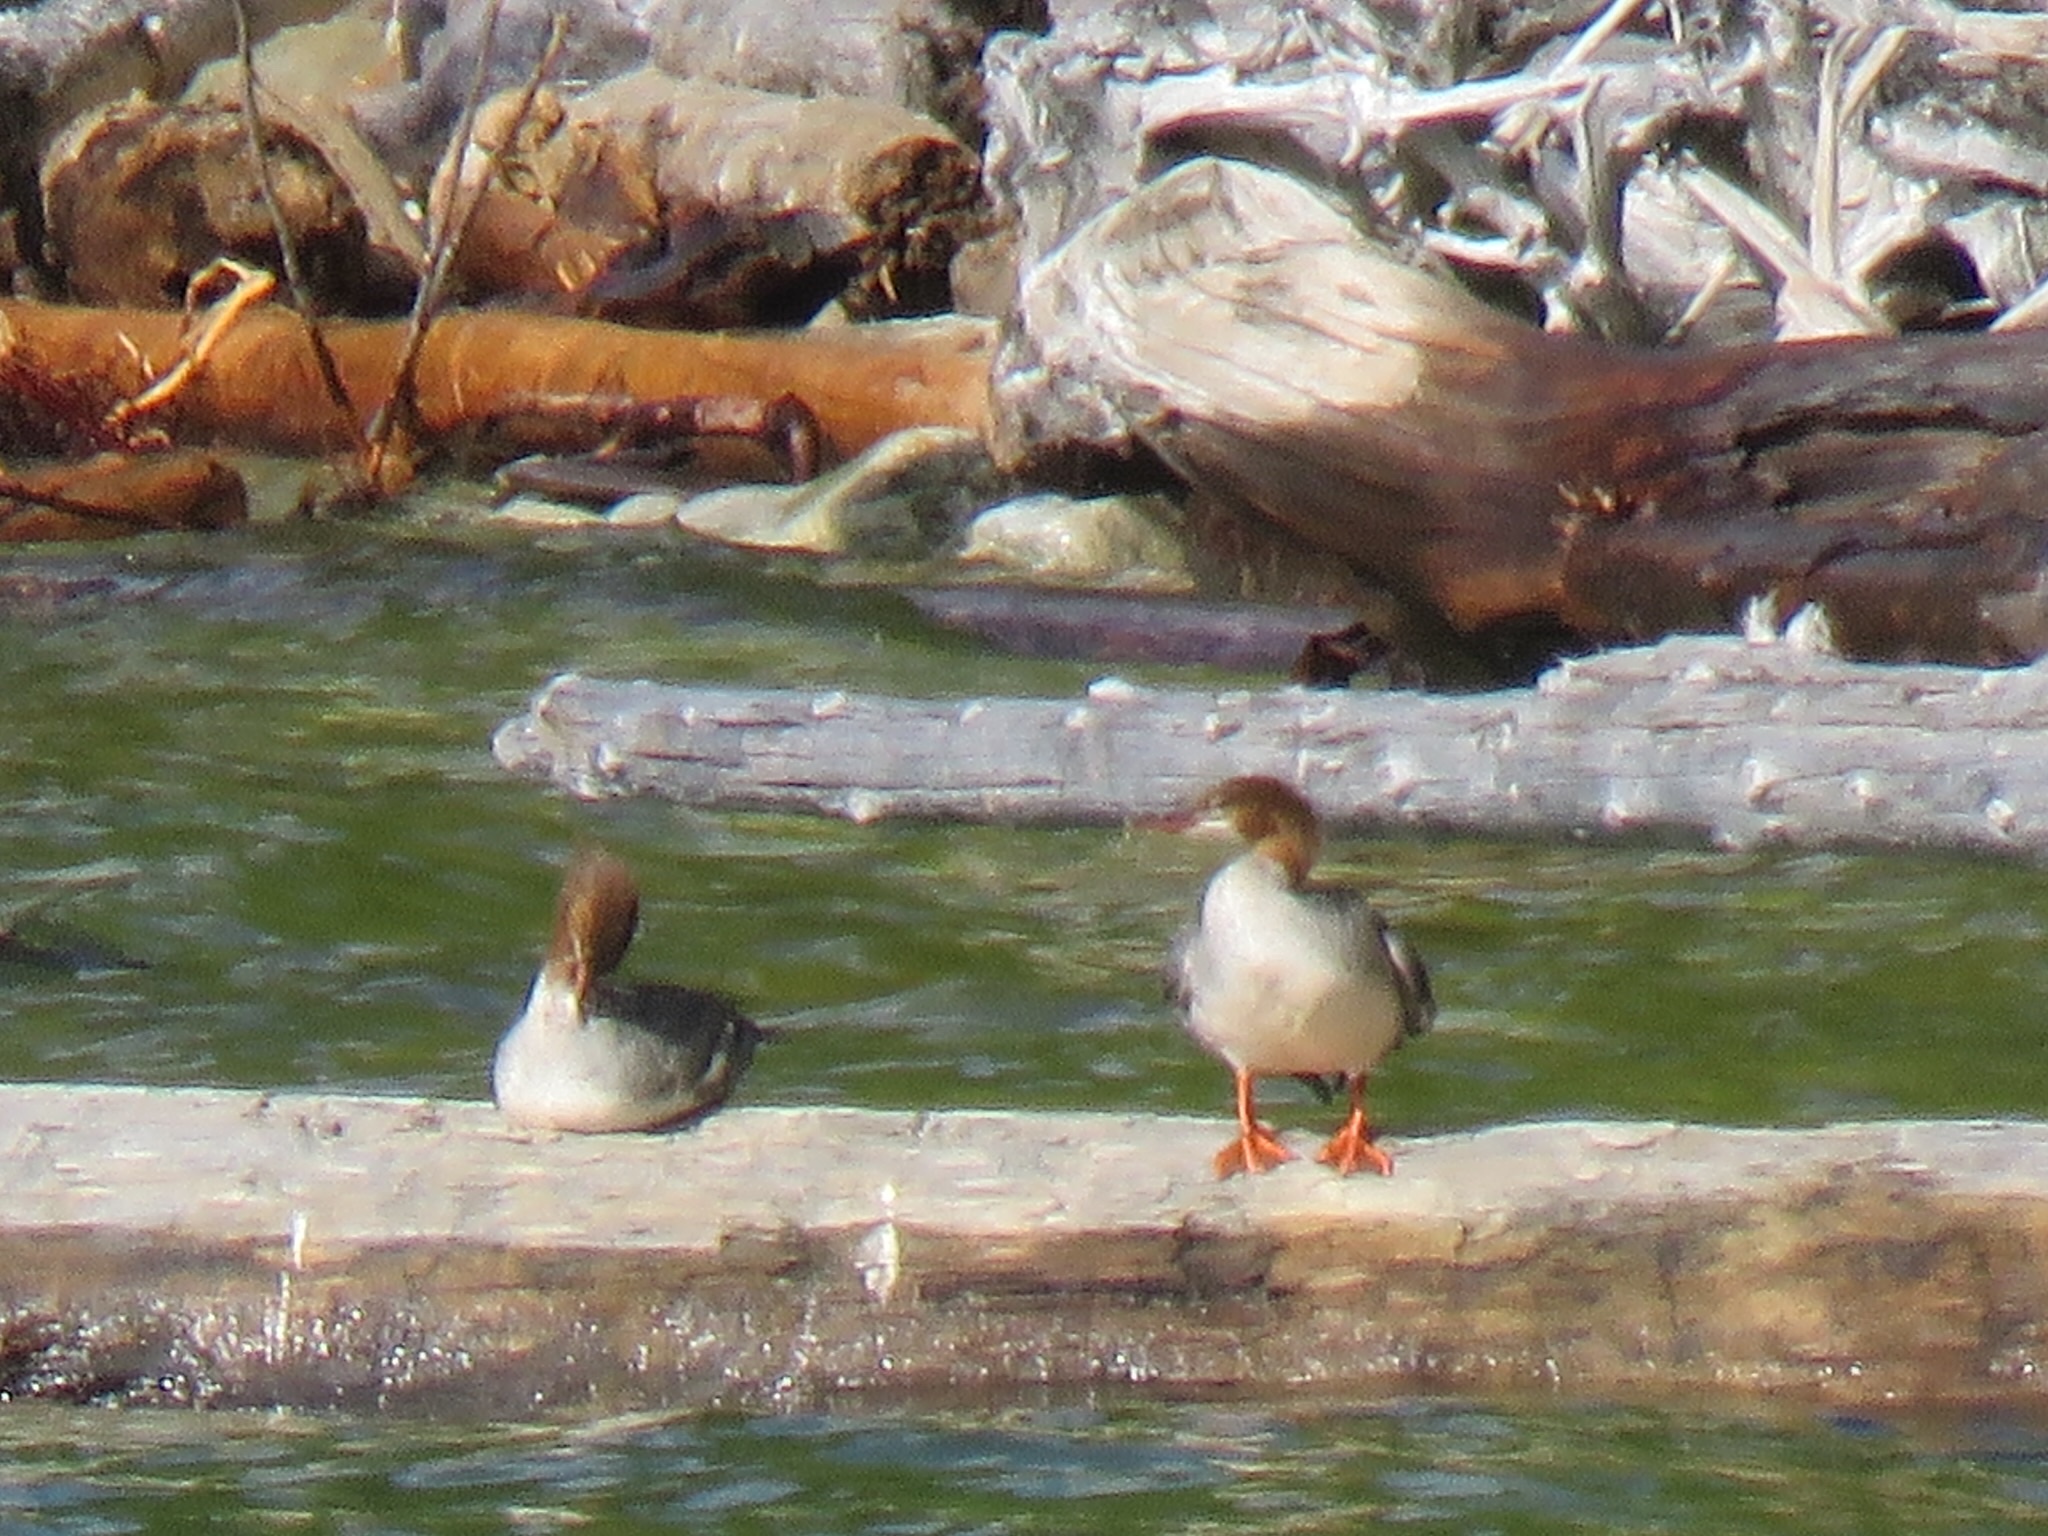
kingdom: Animalia
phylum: Chordata
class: Aves
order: Anseriformes
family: Anatidae
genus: Mergus
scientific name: Mergus merganser
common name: Common merganser
